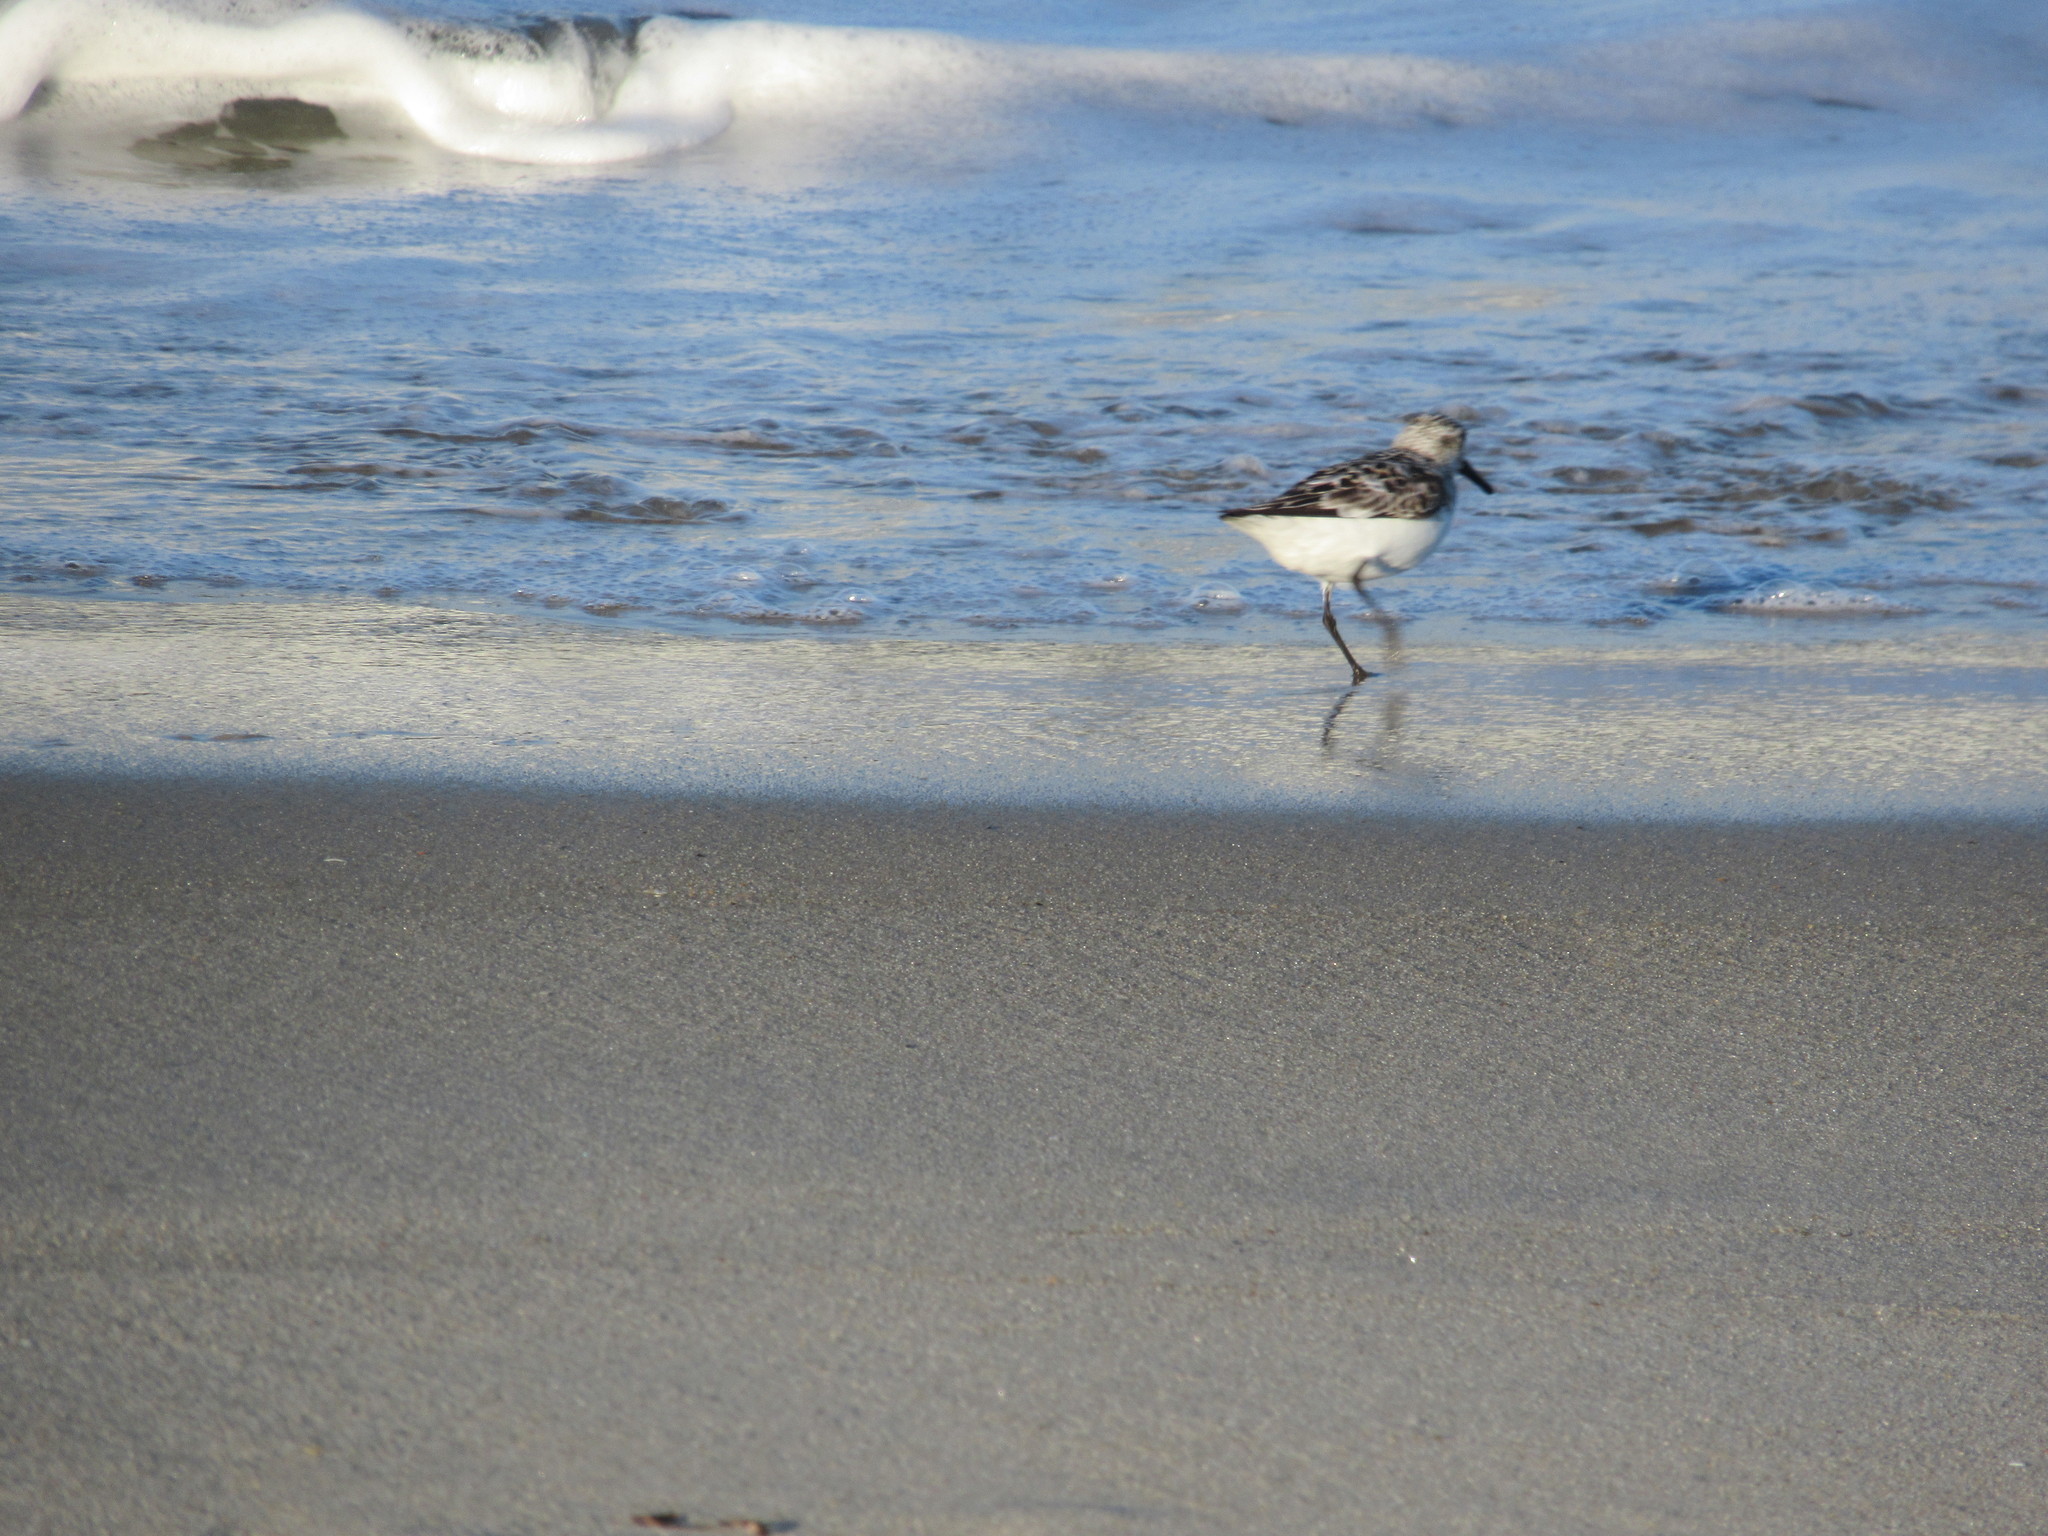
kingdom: Animalia
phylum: Chordata
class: Aves
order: Charadriiformes
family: Scolopacidae
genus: Calidris
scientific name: Calidris alba
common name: Sanderling
